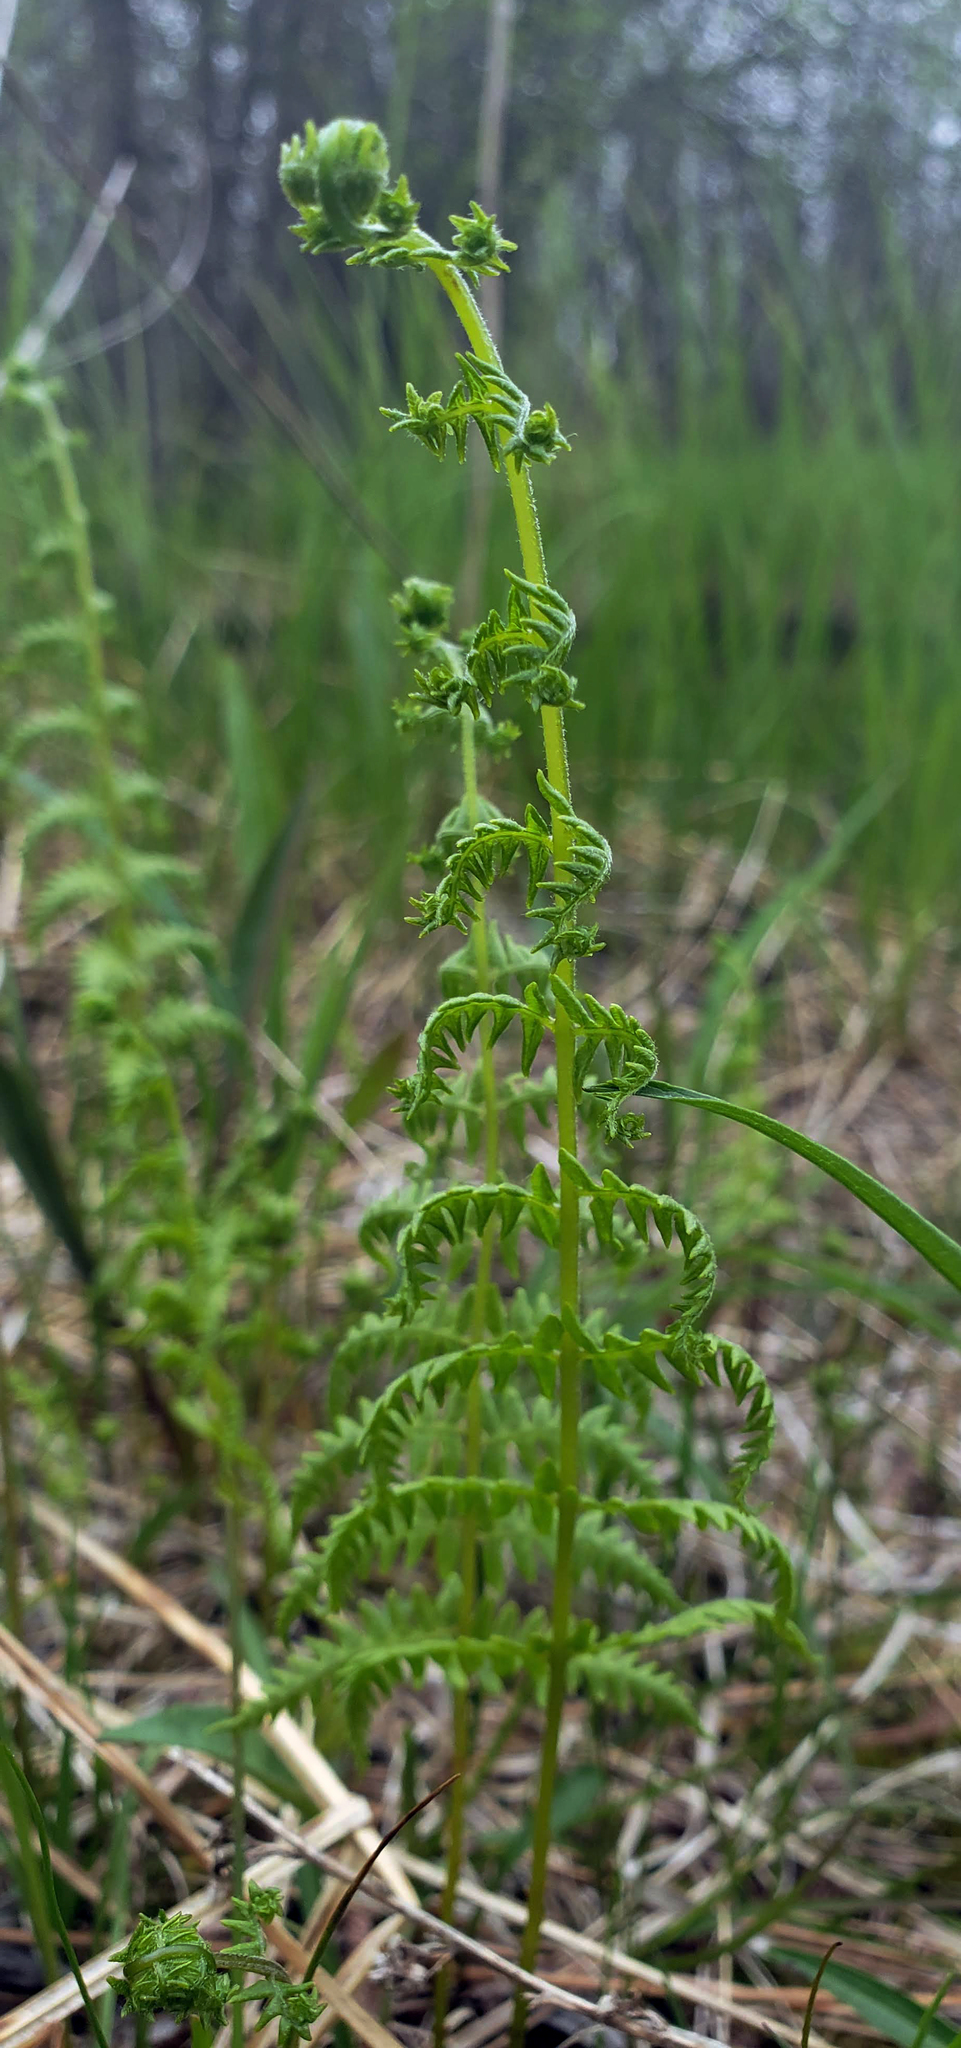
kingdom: Plantae
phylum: Tracheophyta
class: Polypodiopsida
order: Polypodiales
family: Thelypteridaceae
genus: Thelypteris
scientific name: Thelypteris palustris
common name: Marsh fern
